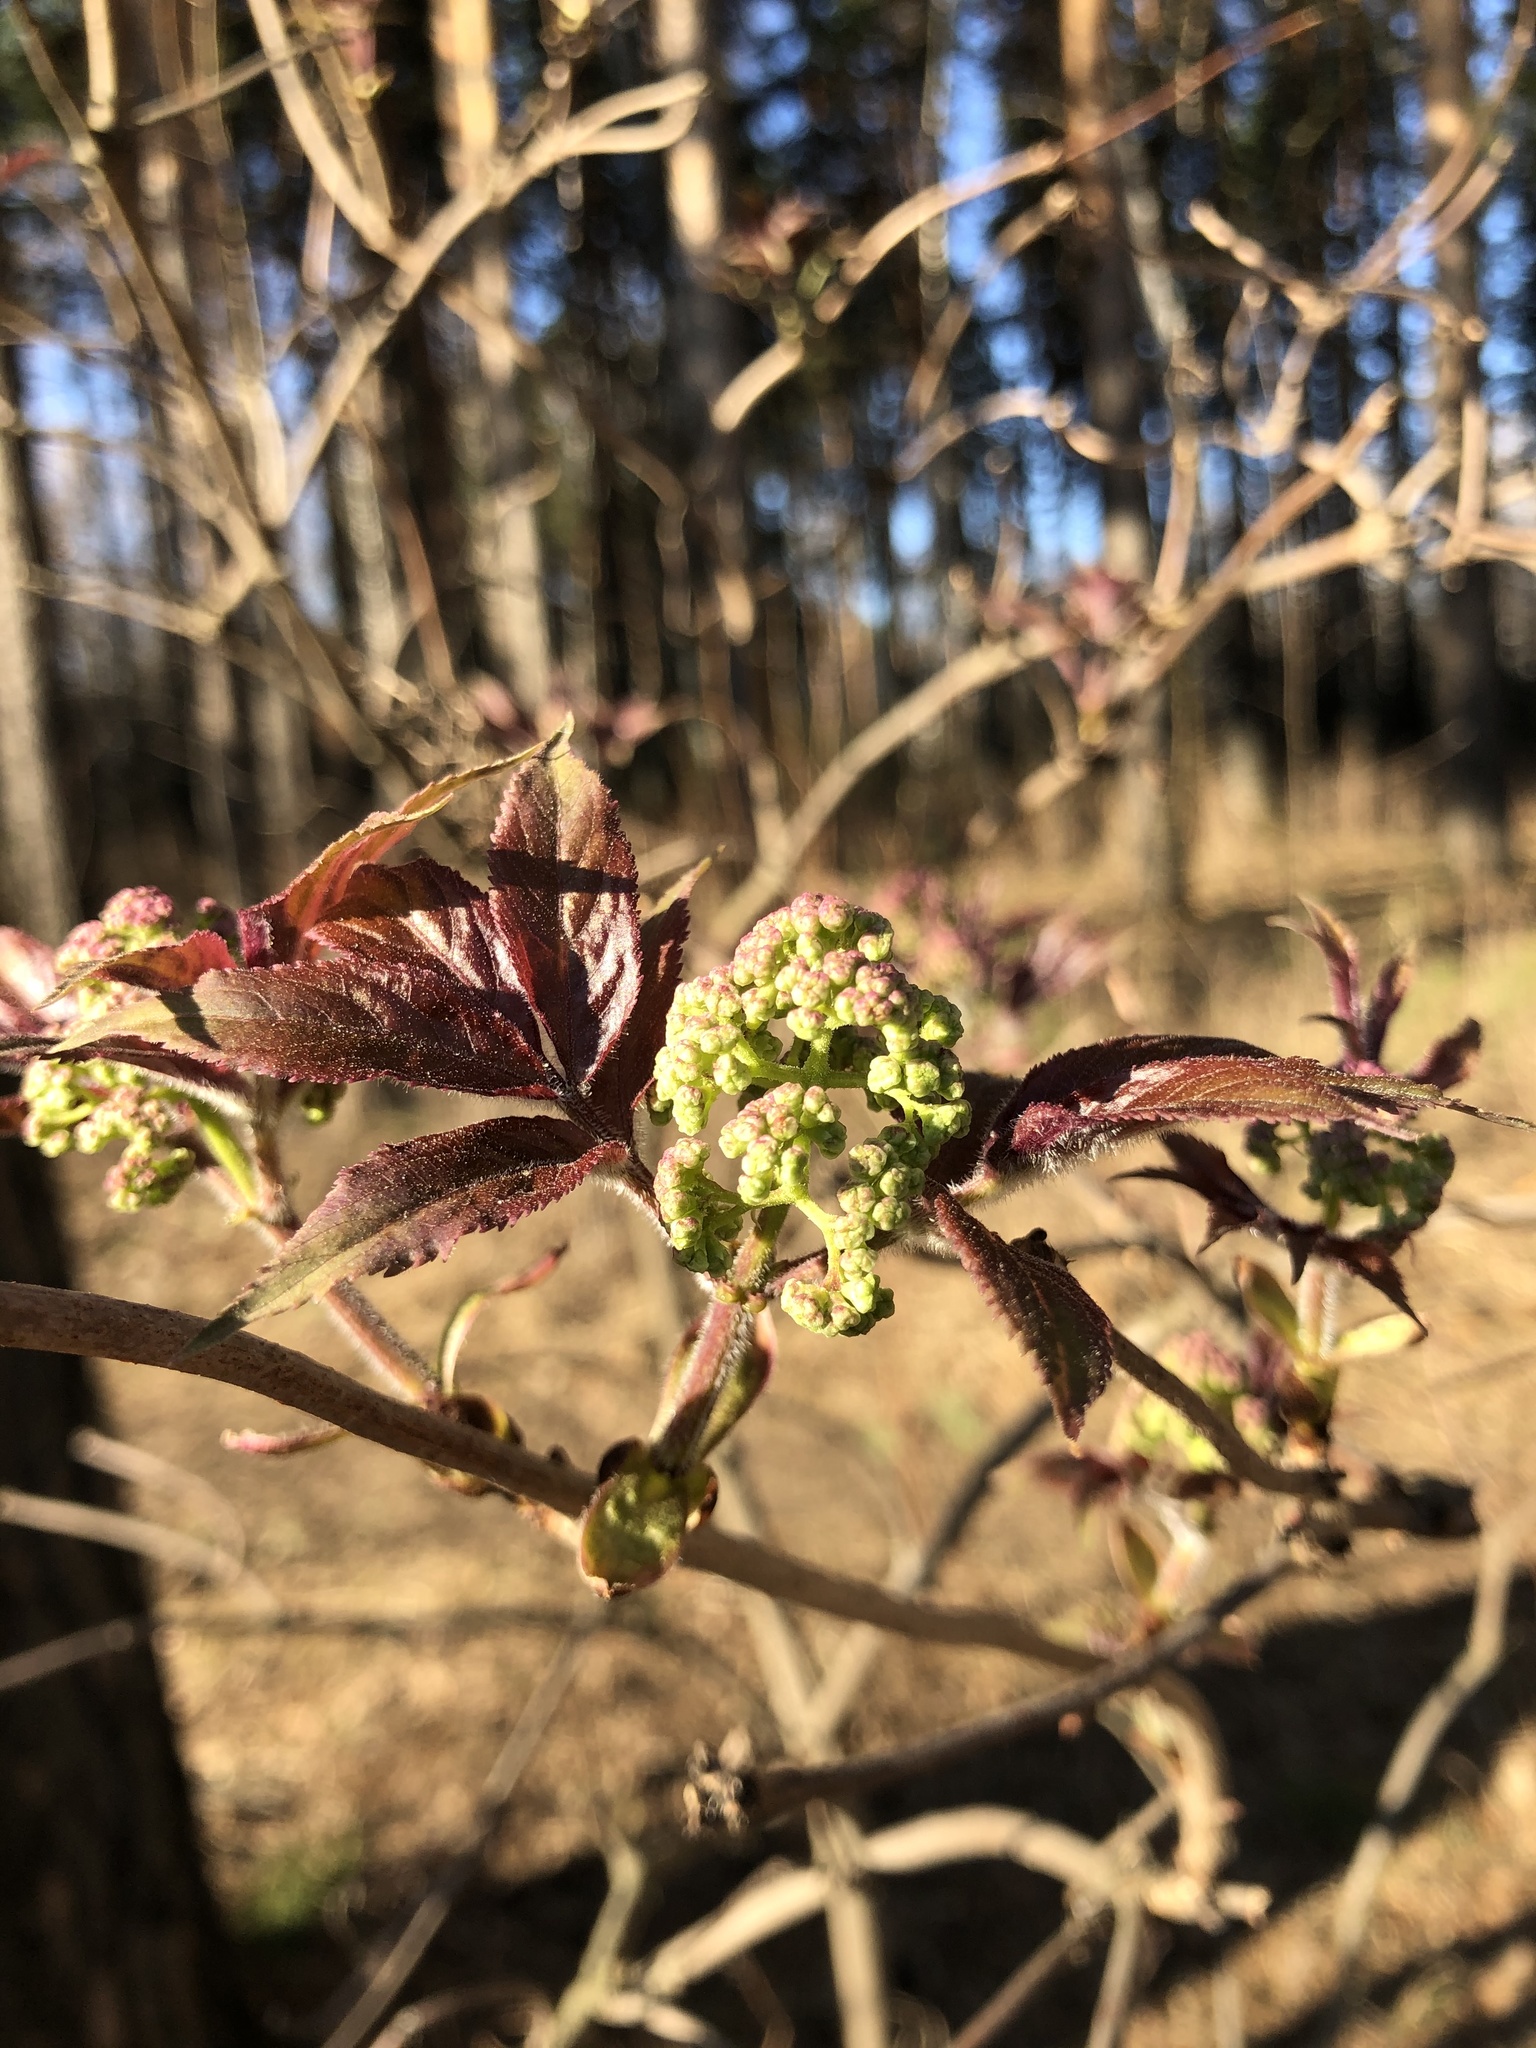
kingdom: Plantae
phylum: Tracheophyta
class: Magnoliopsida
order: Dipsacales
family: Viburnaceae
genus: Sambucus
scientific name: Sambucus sibirica
